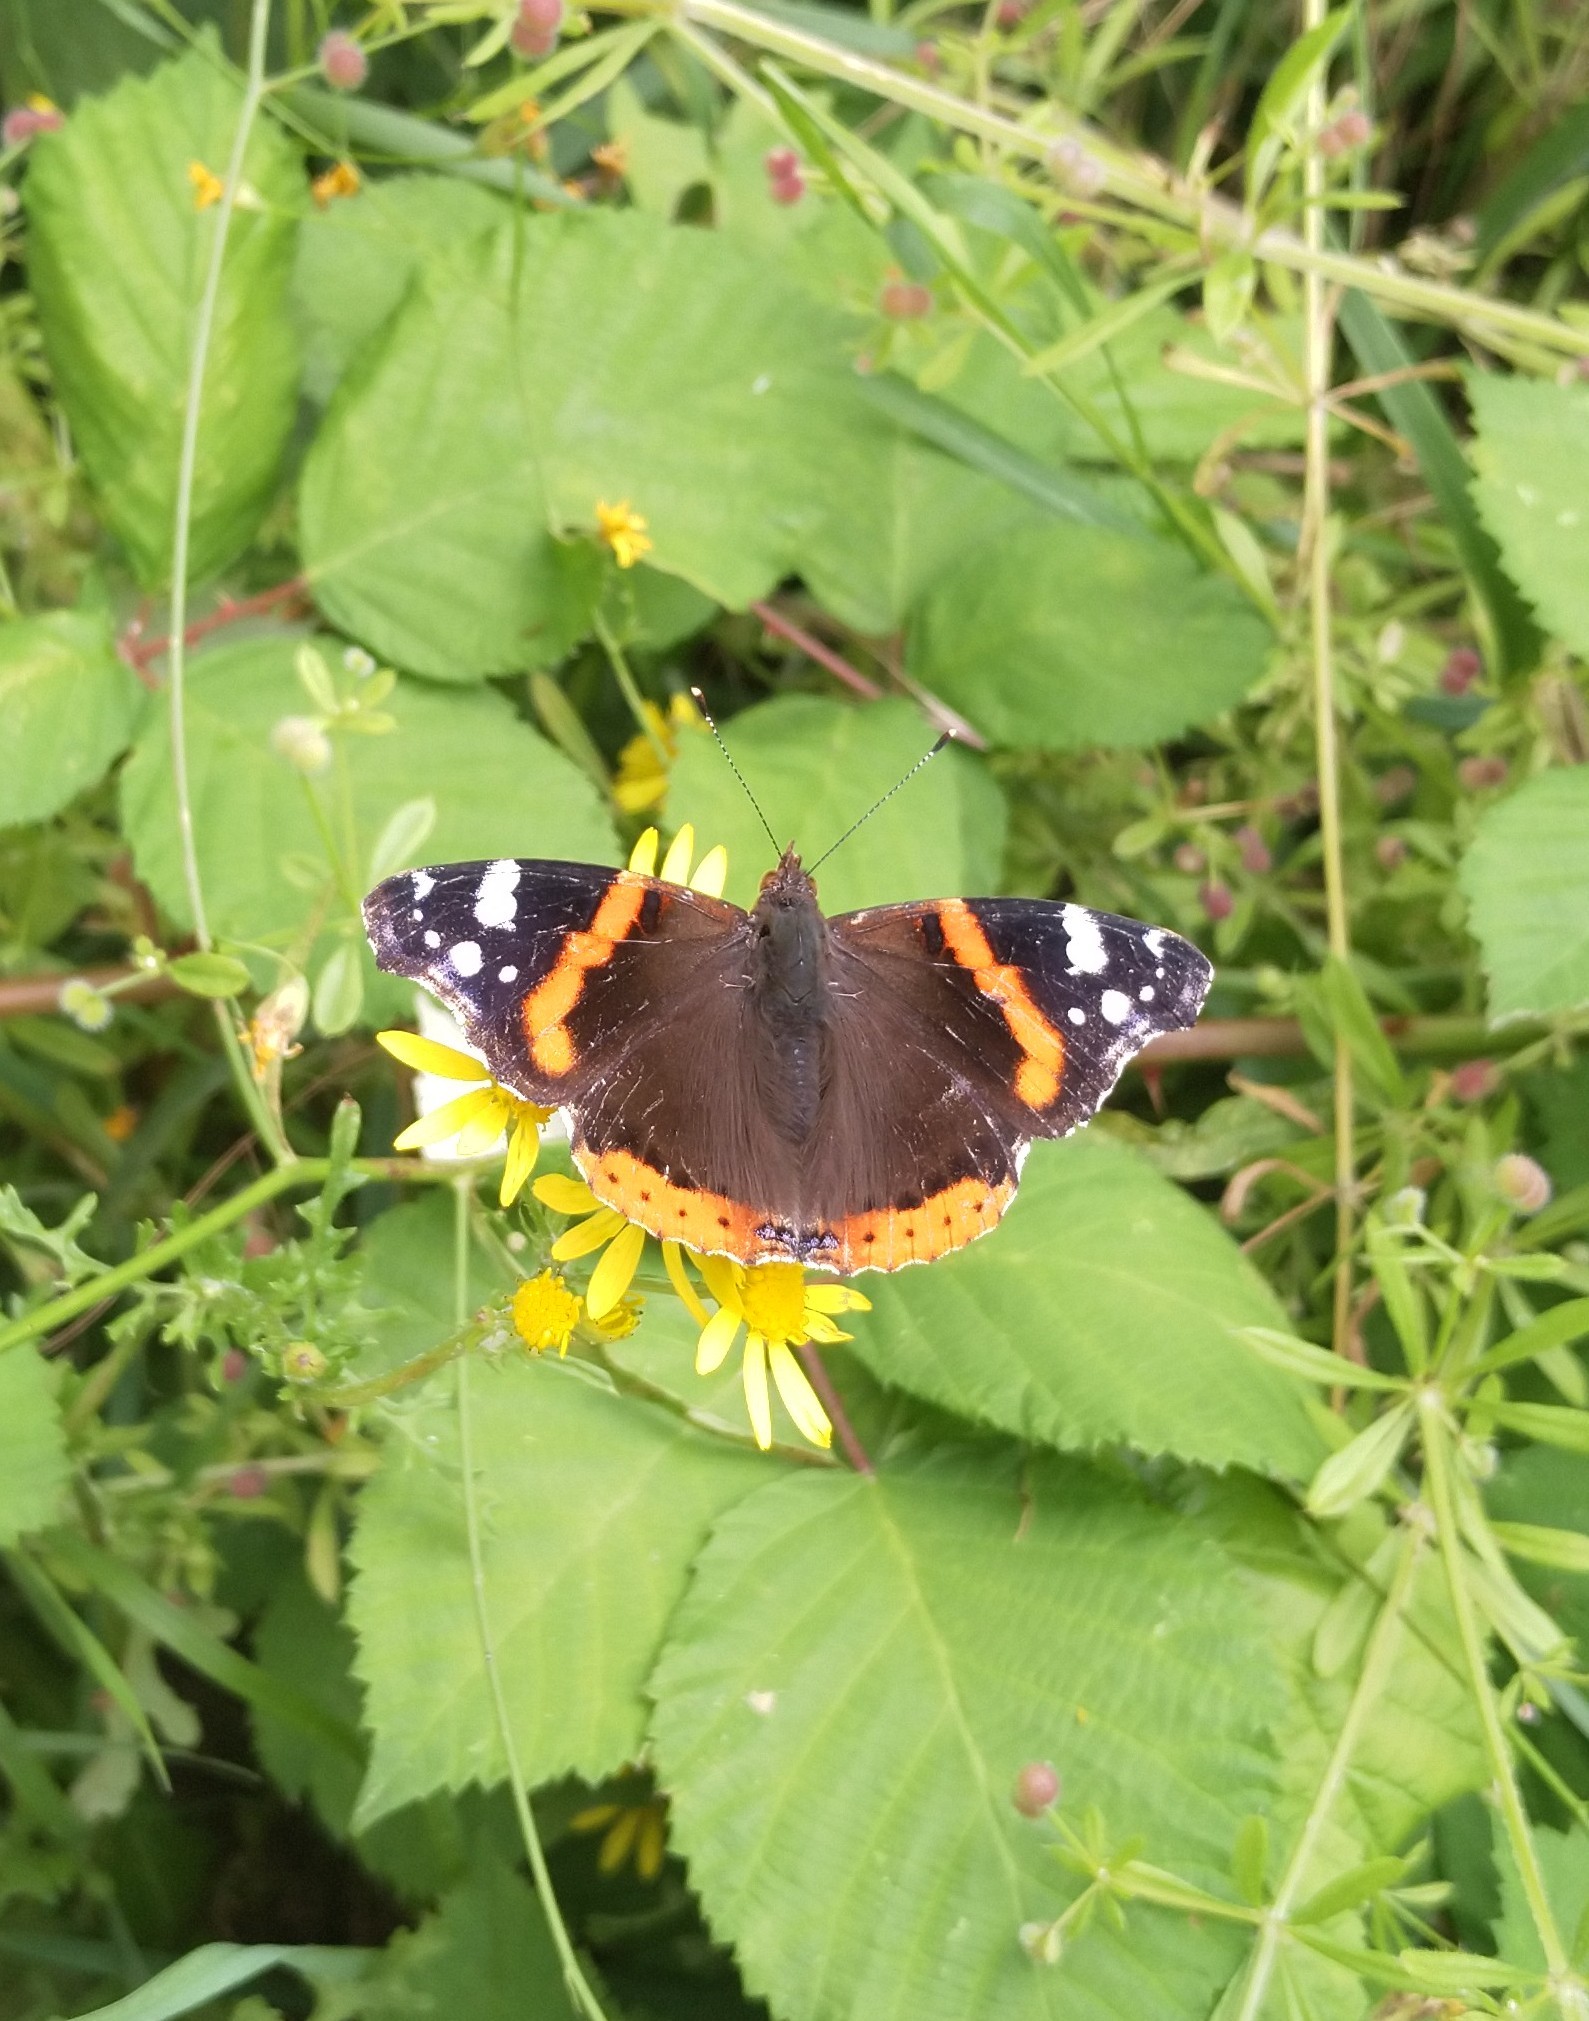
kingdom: Animalia
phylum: Arthropoda
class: Insecta
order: Lepidoptera
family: Nymphalidae
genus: Vanessa
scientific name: Vanessa atalanta
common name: Red admiral
